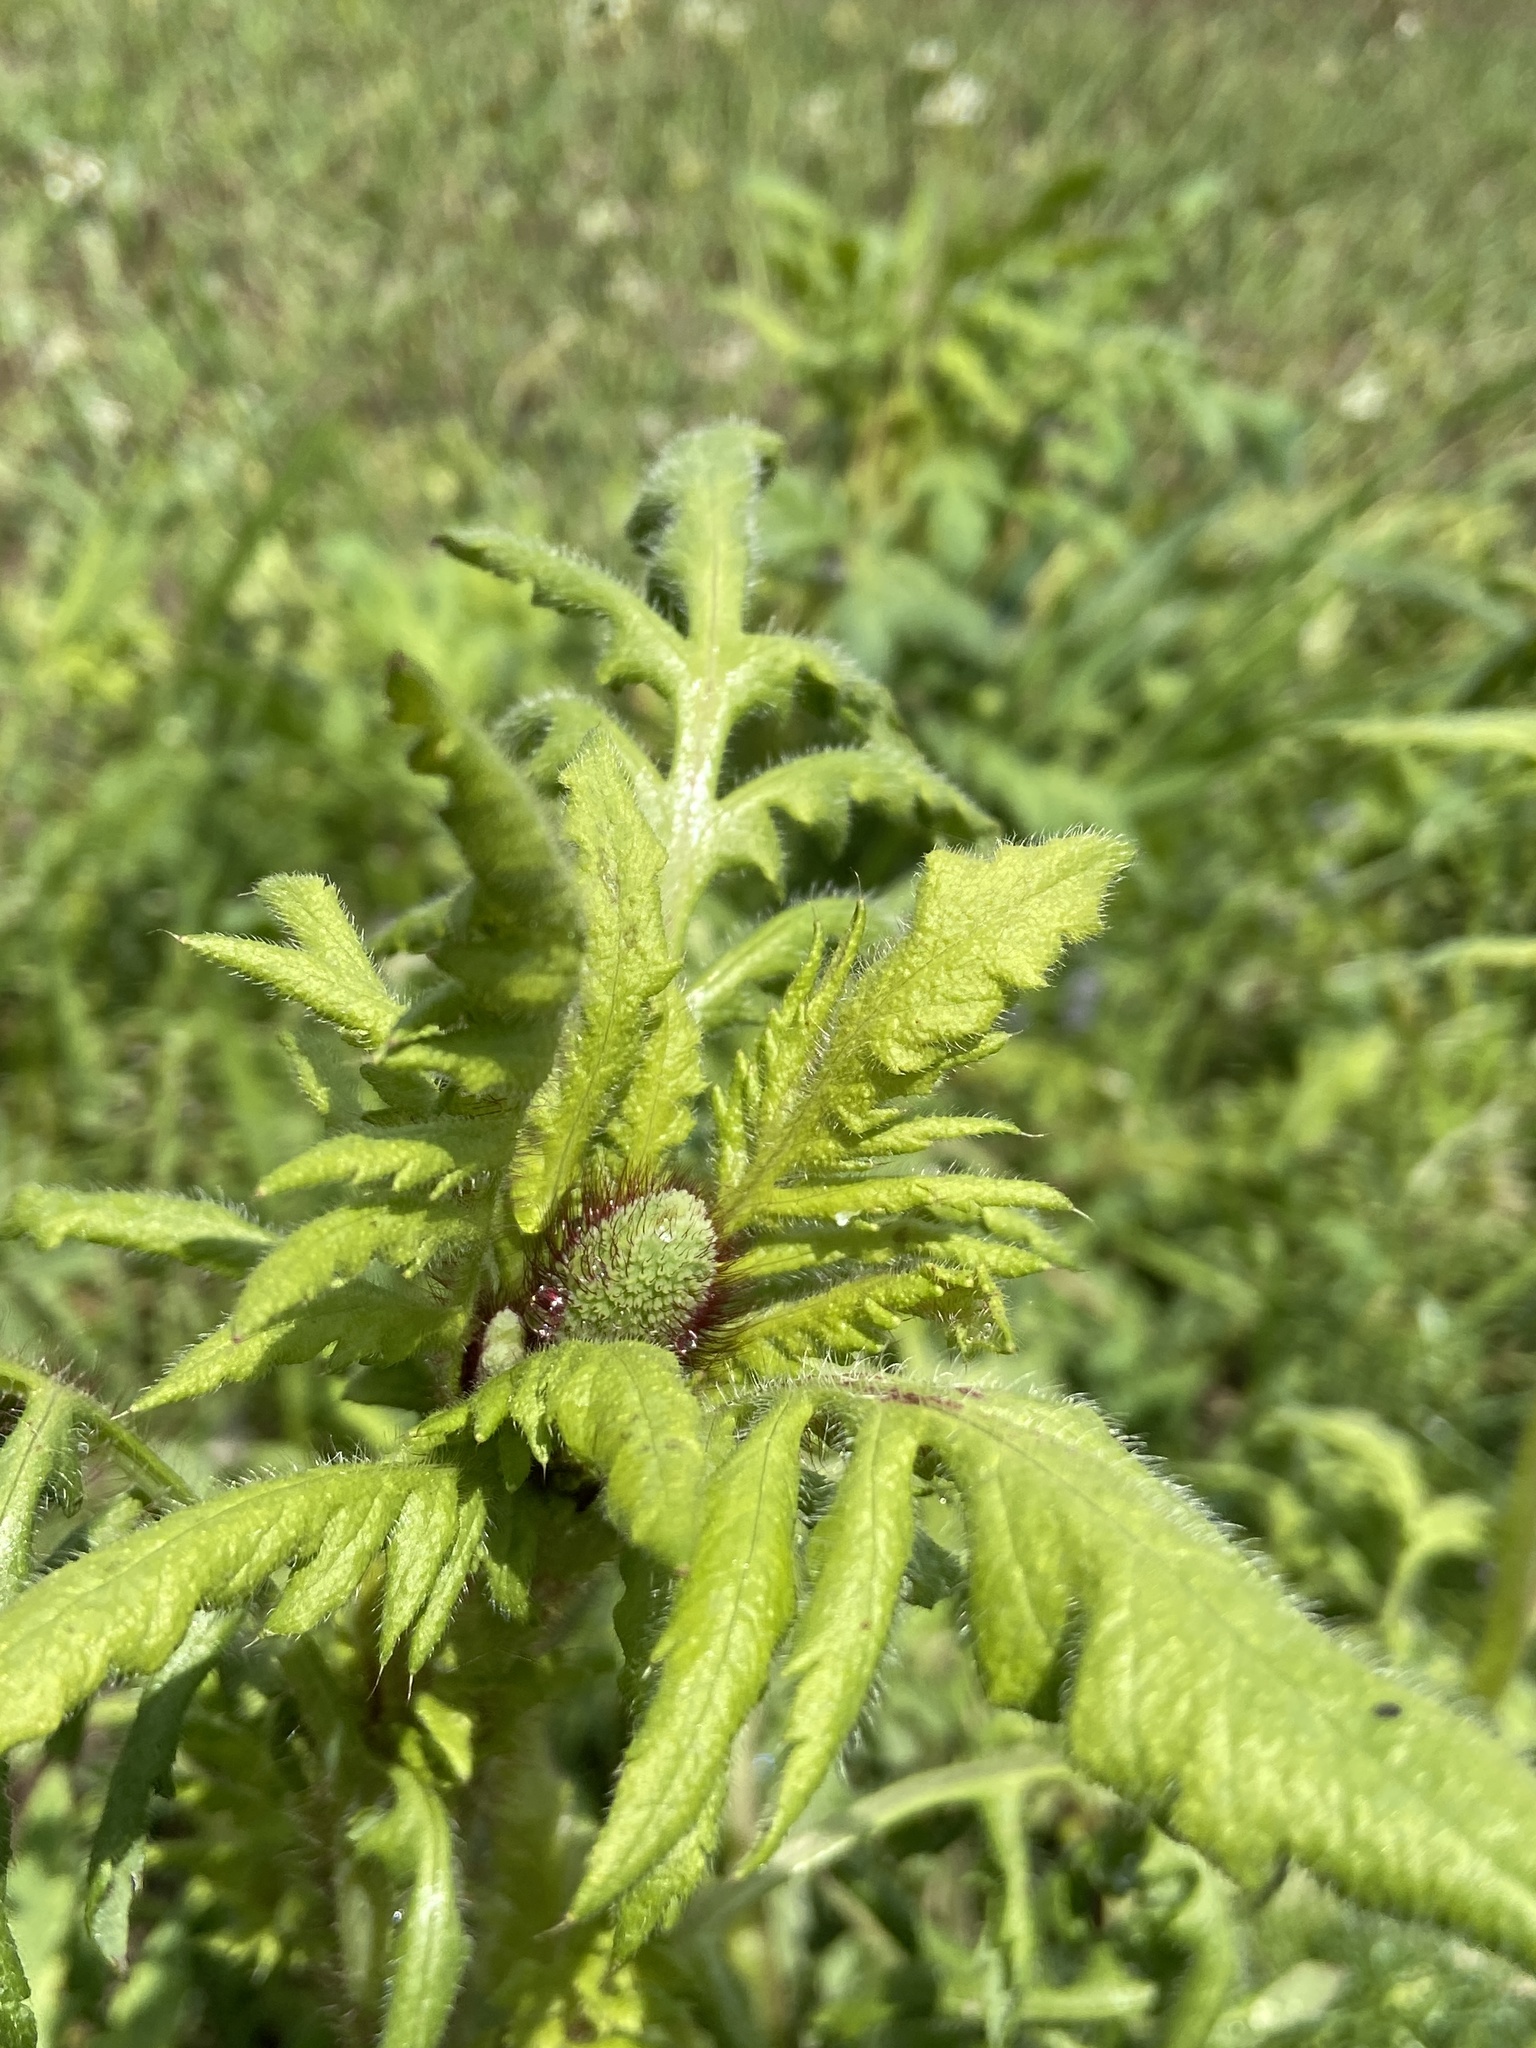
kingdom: Plantae
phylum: Tracheophyta
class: Magnoliopsida
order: Ranunculales
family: Papaveraceae
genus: Papaver
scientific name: Papaver rhoeas
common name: Corn poppy
